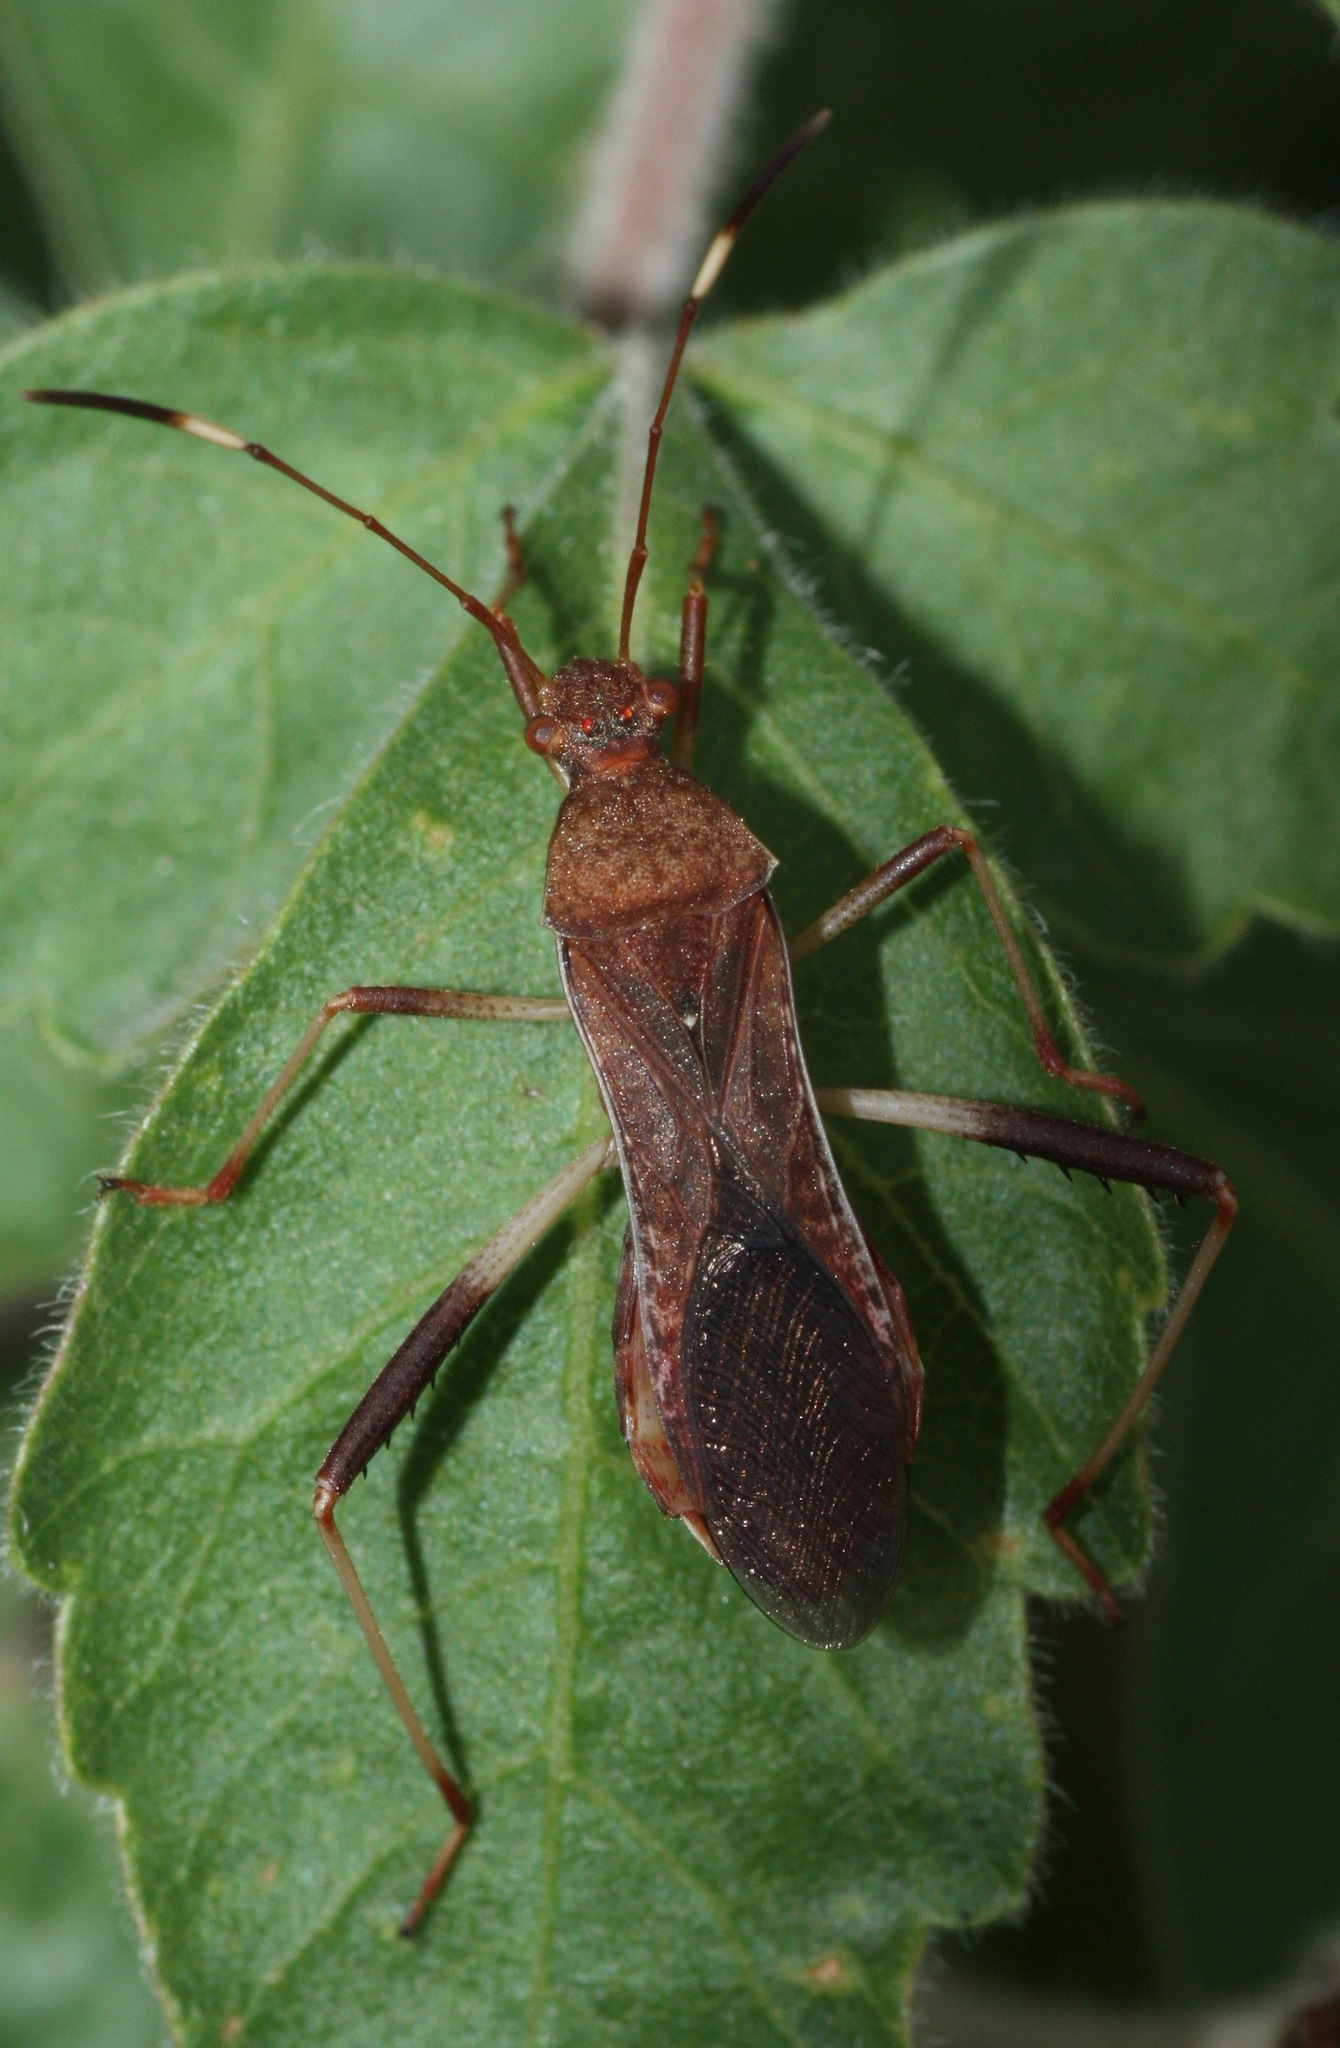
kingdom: Animalia
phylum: Arthropoda
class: Insecta
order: Hemiptera
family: Alydidae
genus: Megalotomus
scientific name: Megalotomus quinquespinosus
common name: Lupine bug
